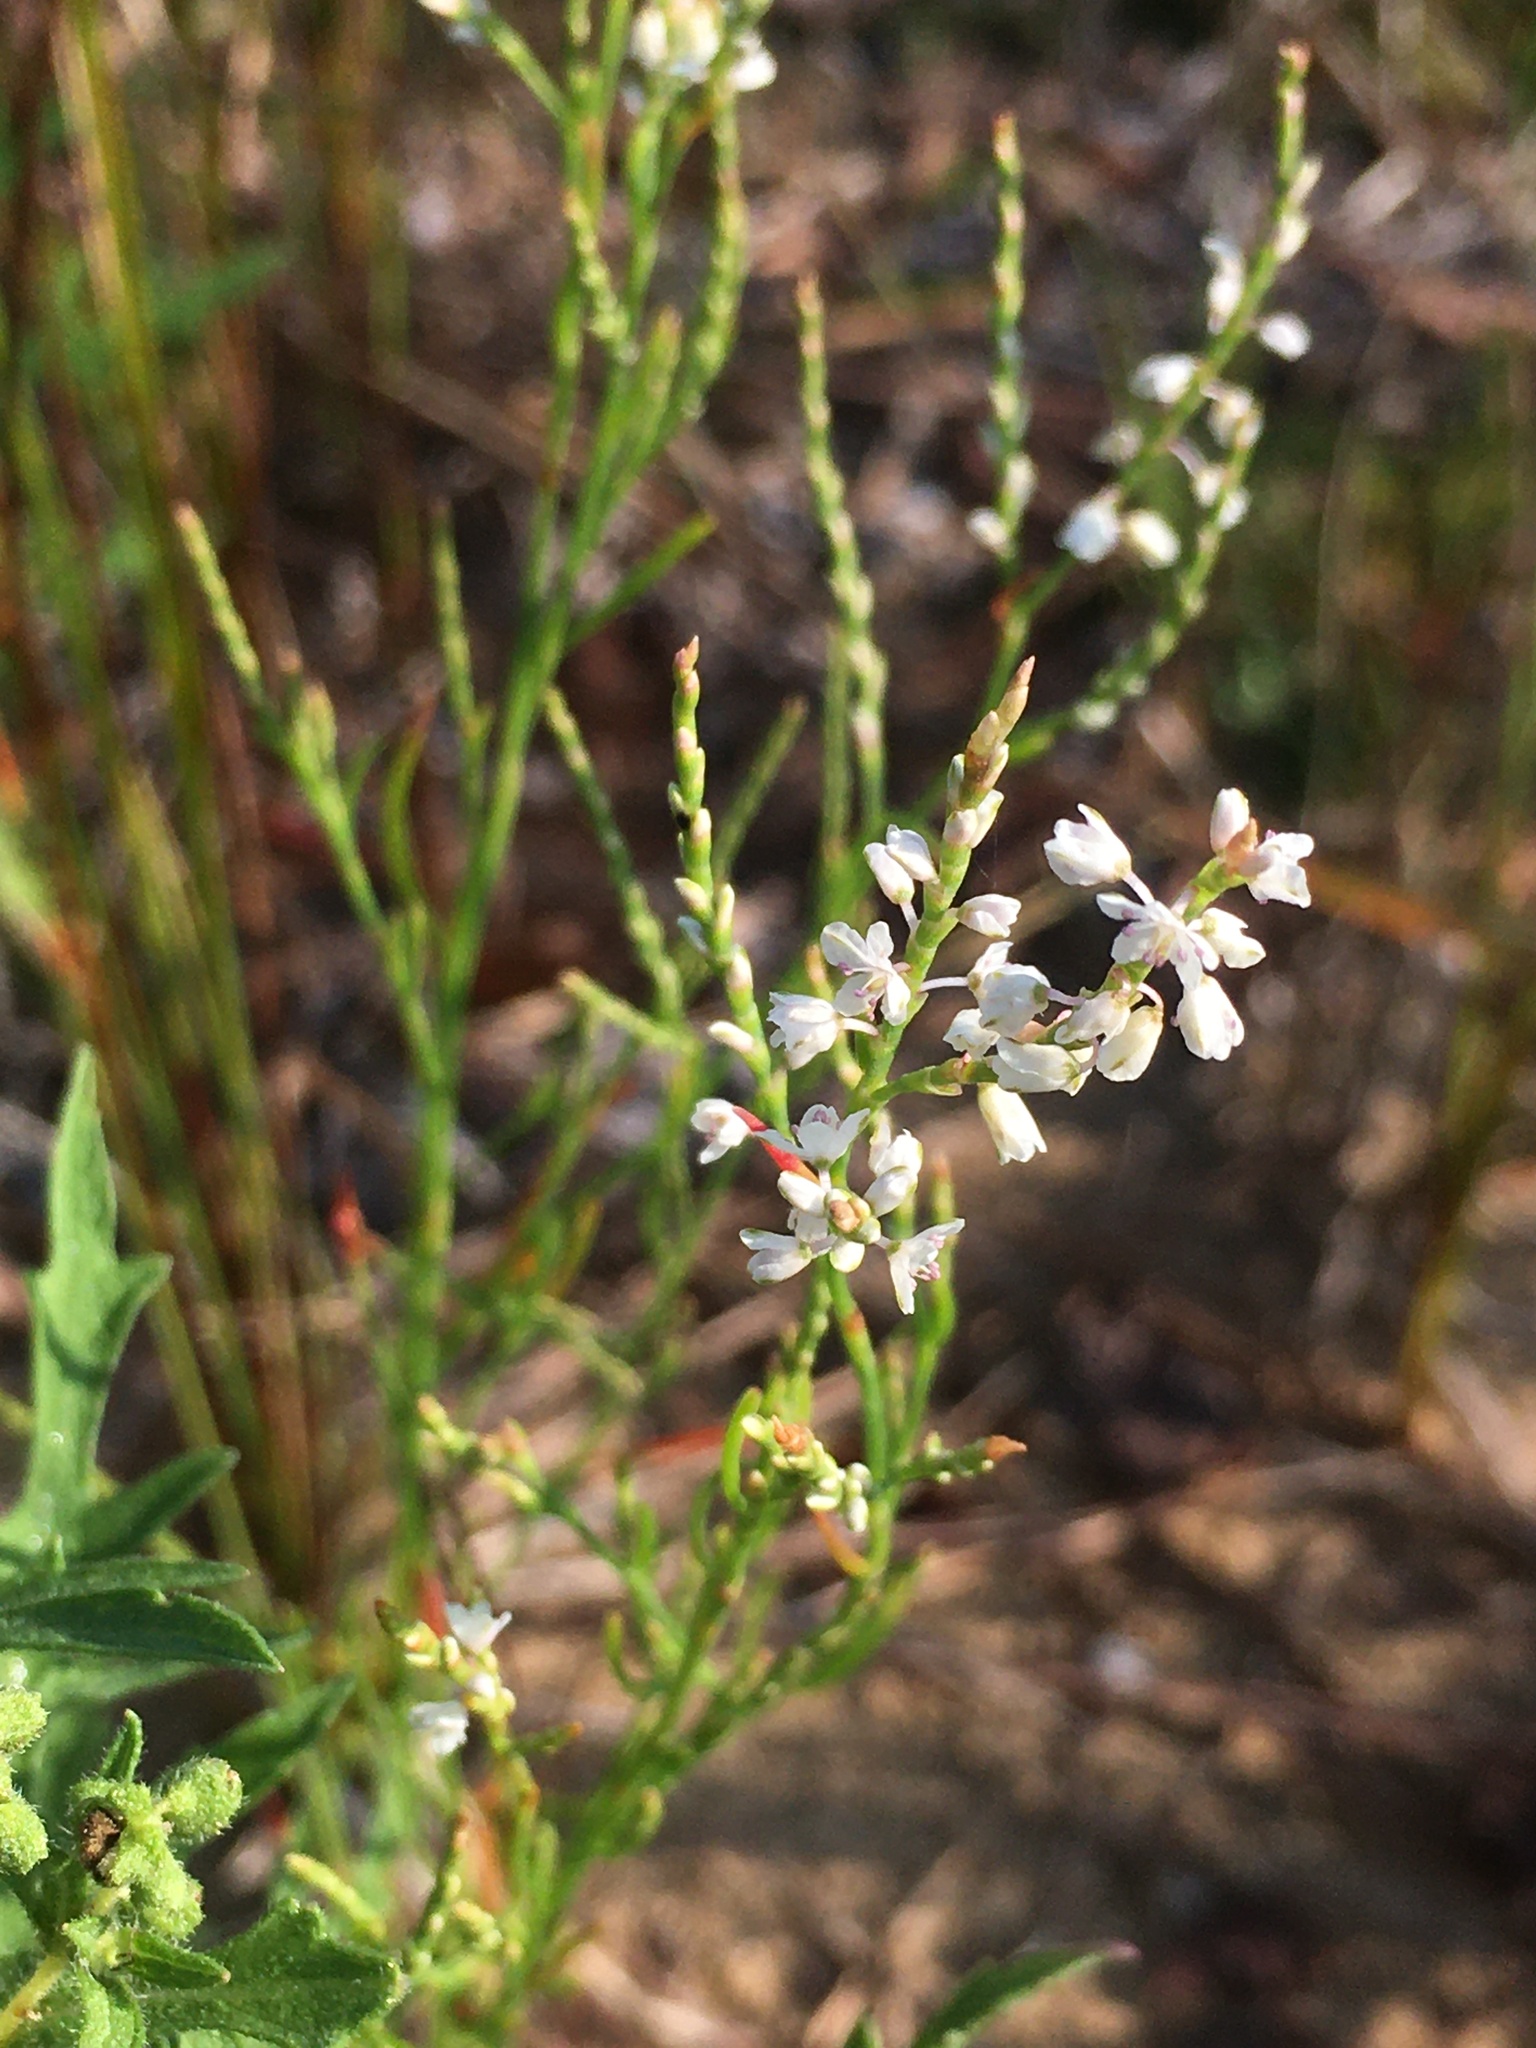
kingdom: Plantae
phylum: Tracheophyta
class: Magnoliopsida
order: Caryophyllales
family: Polygonaceae
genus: Polygonella
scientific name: Polygonella articulata
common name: Coastal jointweed
